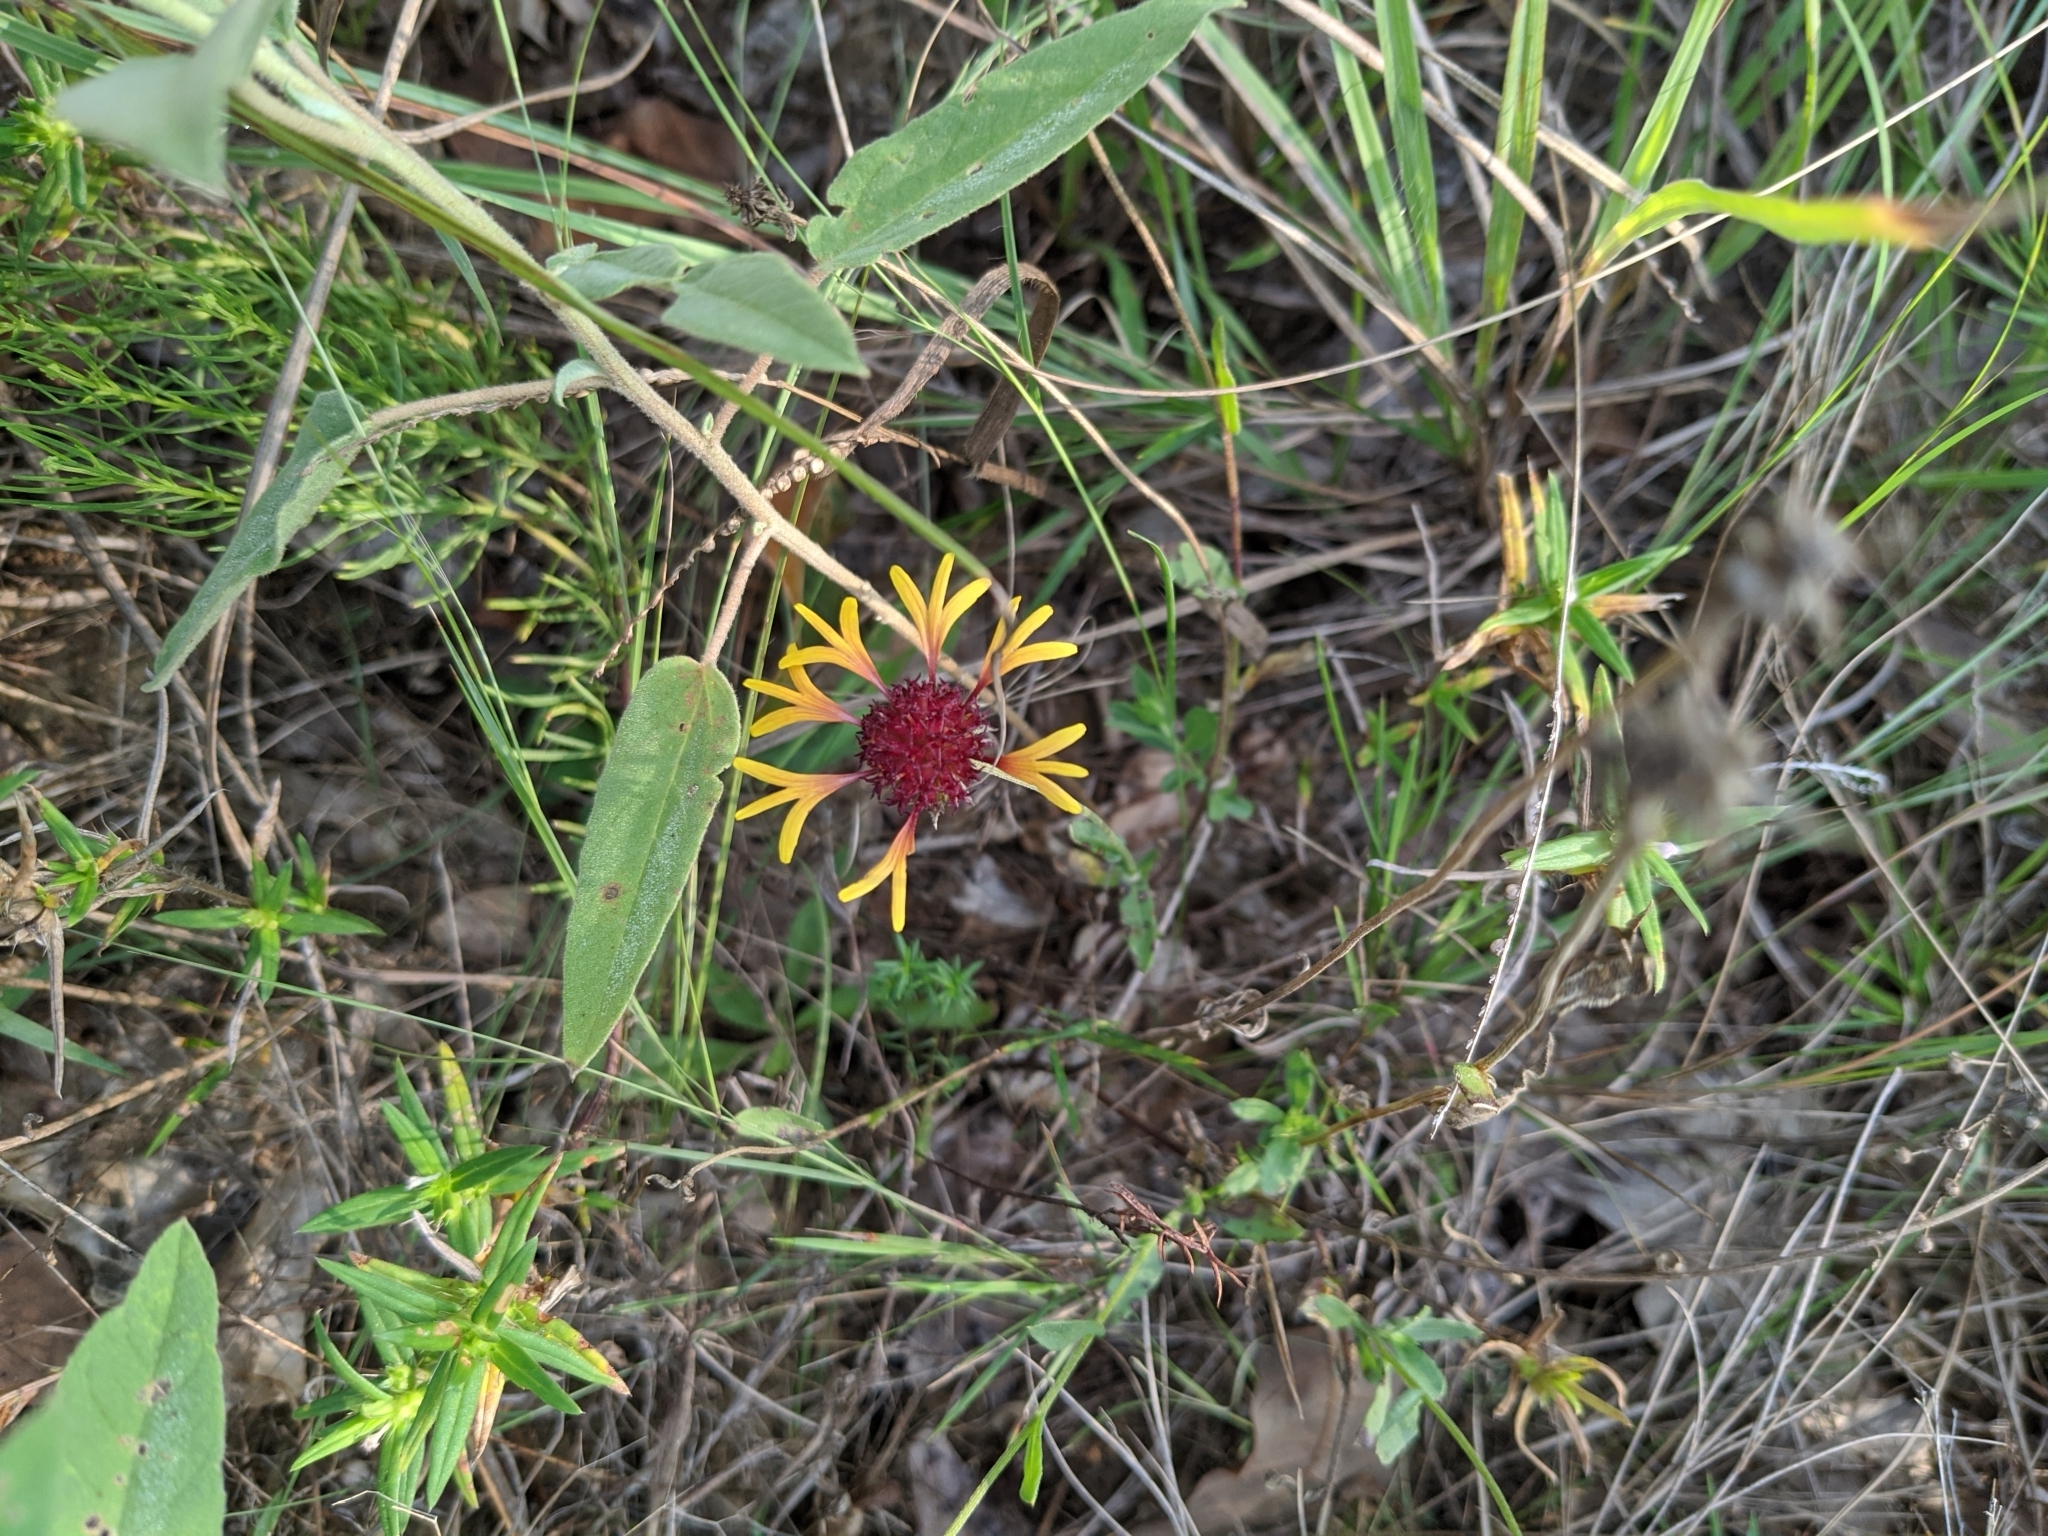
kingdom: Plantae
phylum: Tracheophyta
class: Magnoliopsida
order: Asterales
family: Asteraceae
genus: Gaillardia
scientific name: Gaillardia aestivalis
